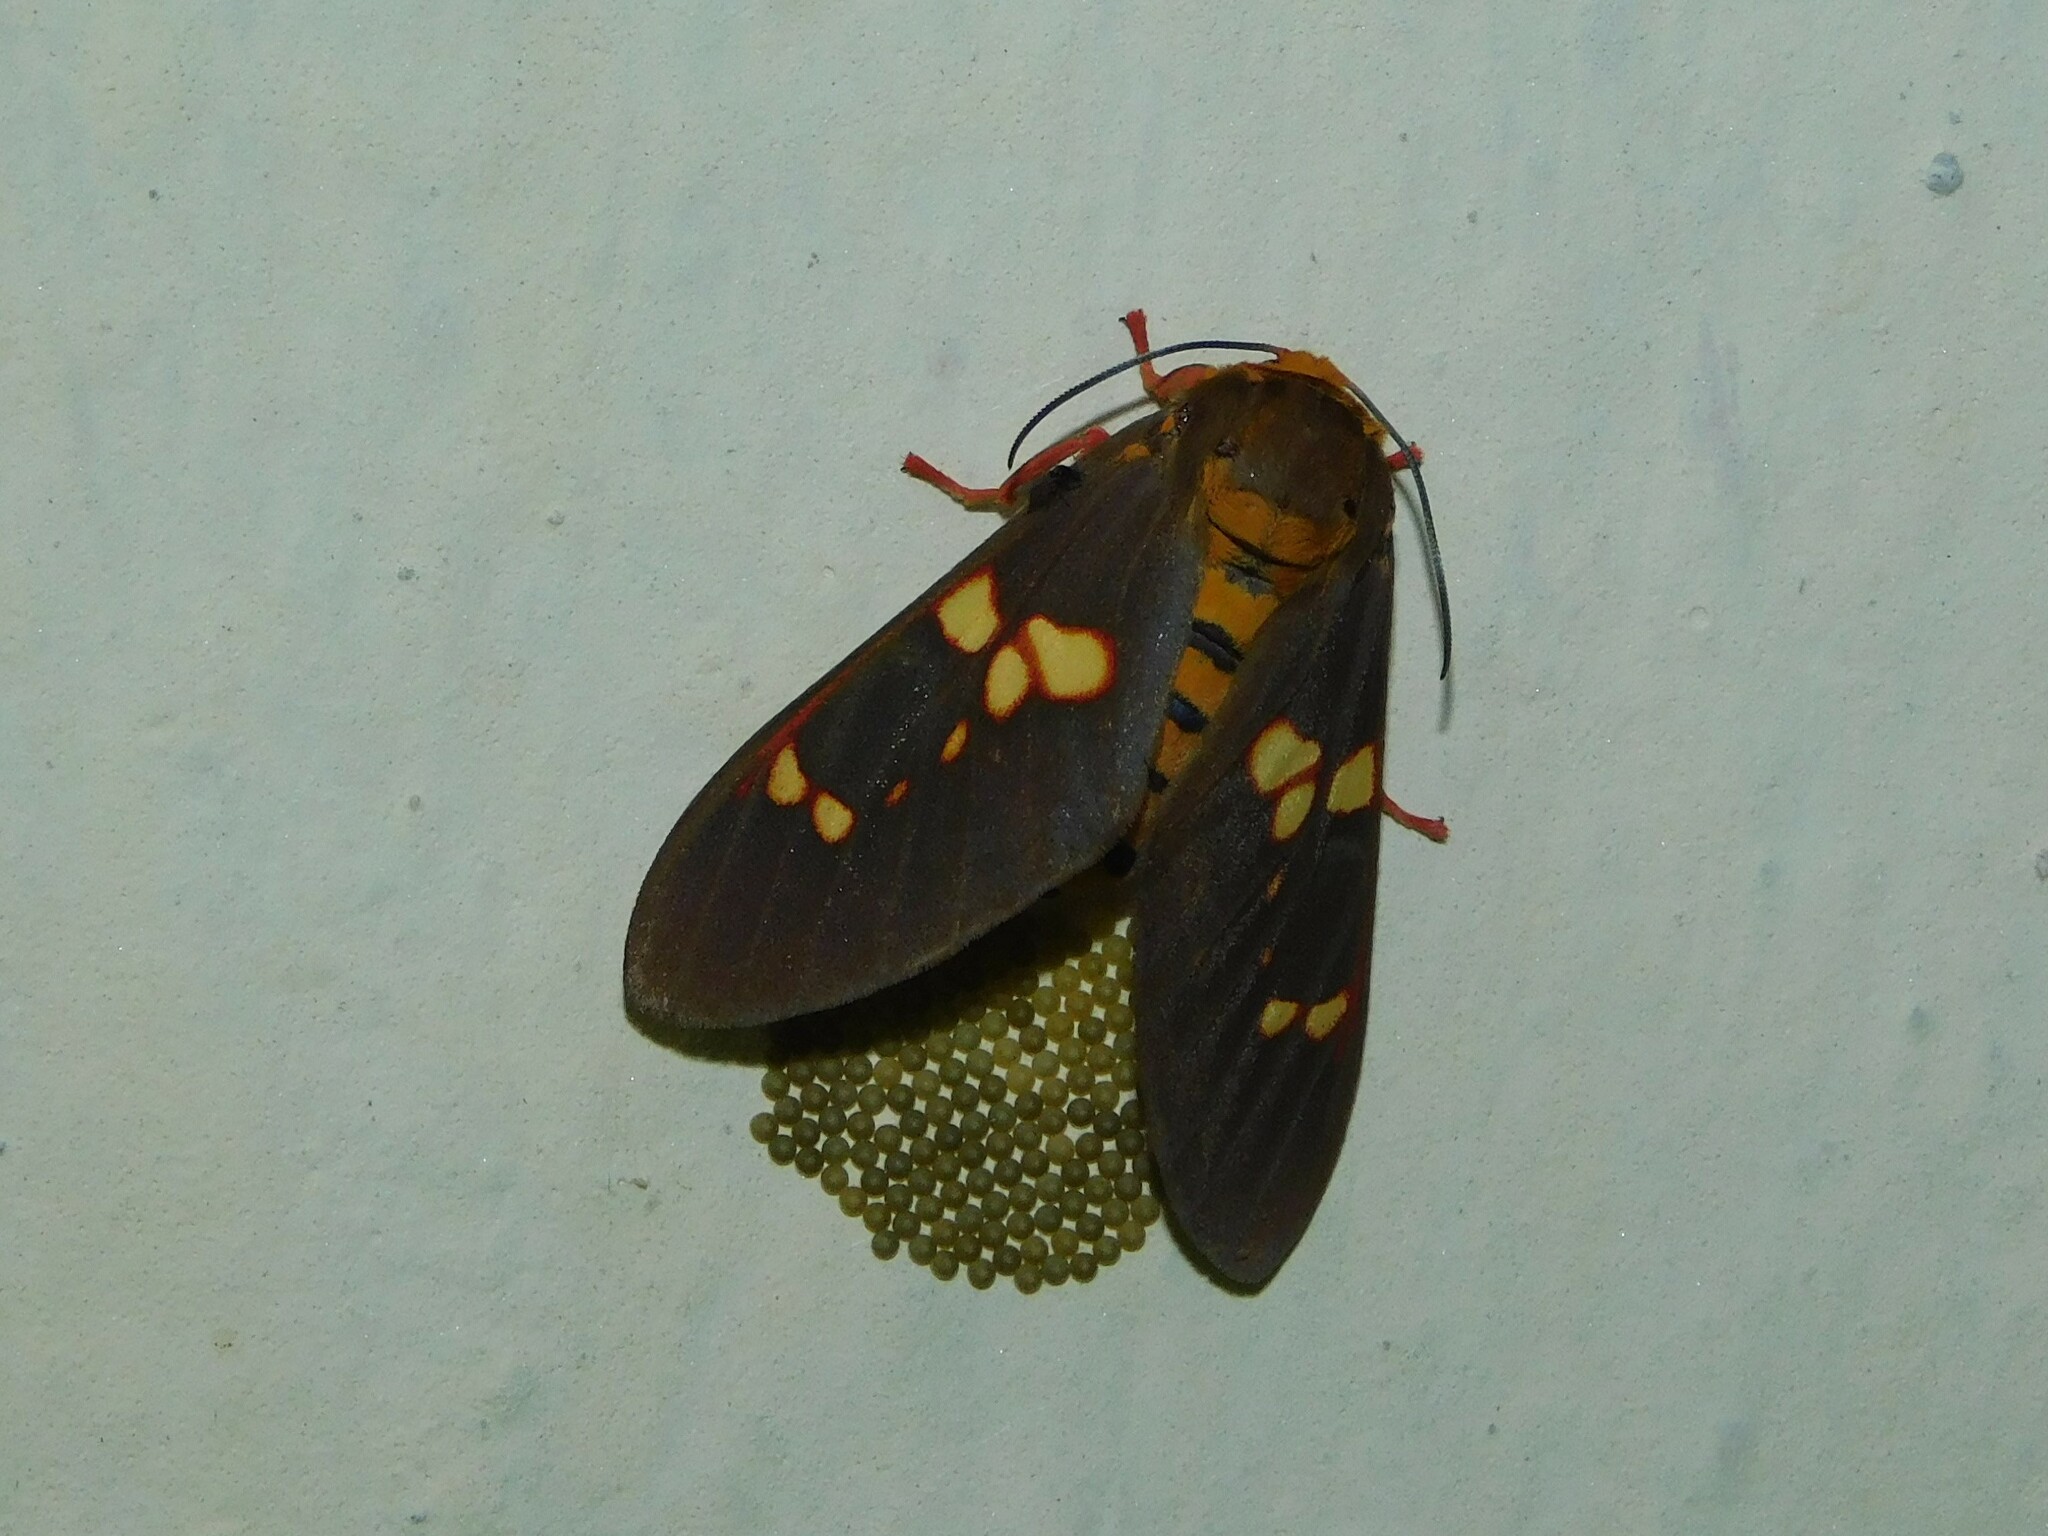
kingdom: Animalia
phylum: Arthropoda
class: Insecta
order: Lepidoptera
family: Erebidae
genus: Balacra
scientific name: Balacra batesi
